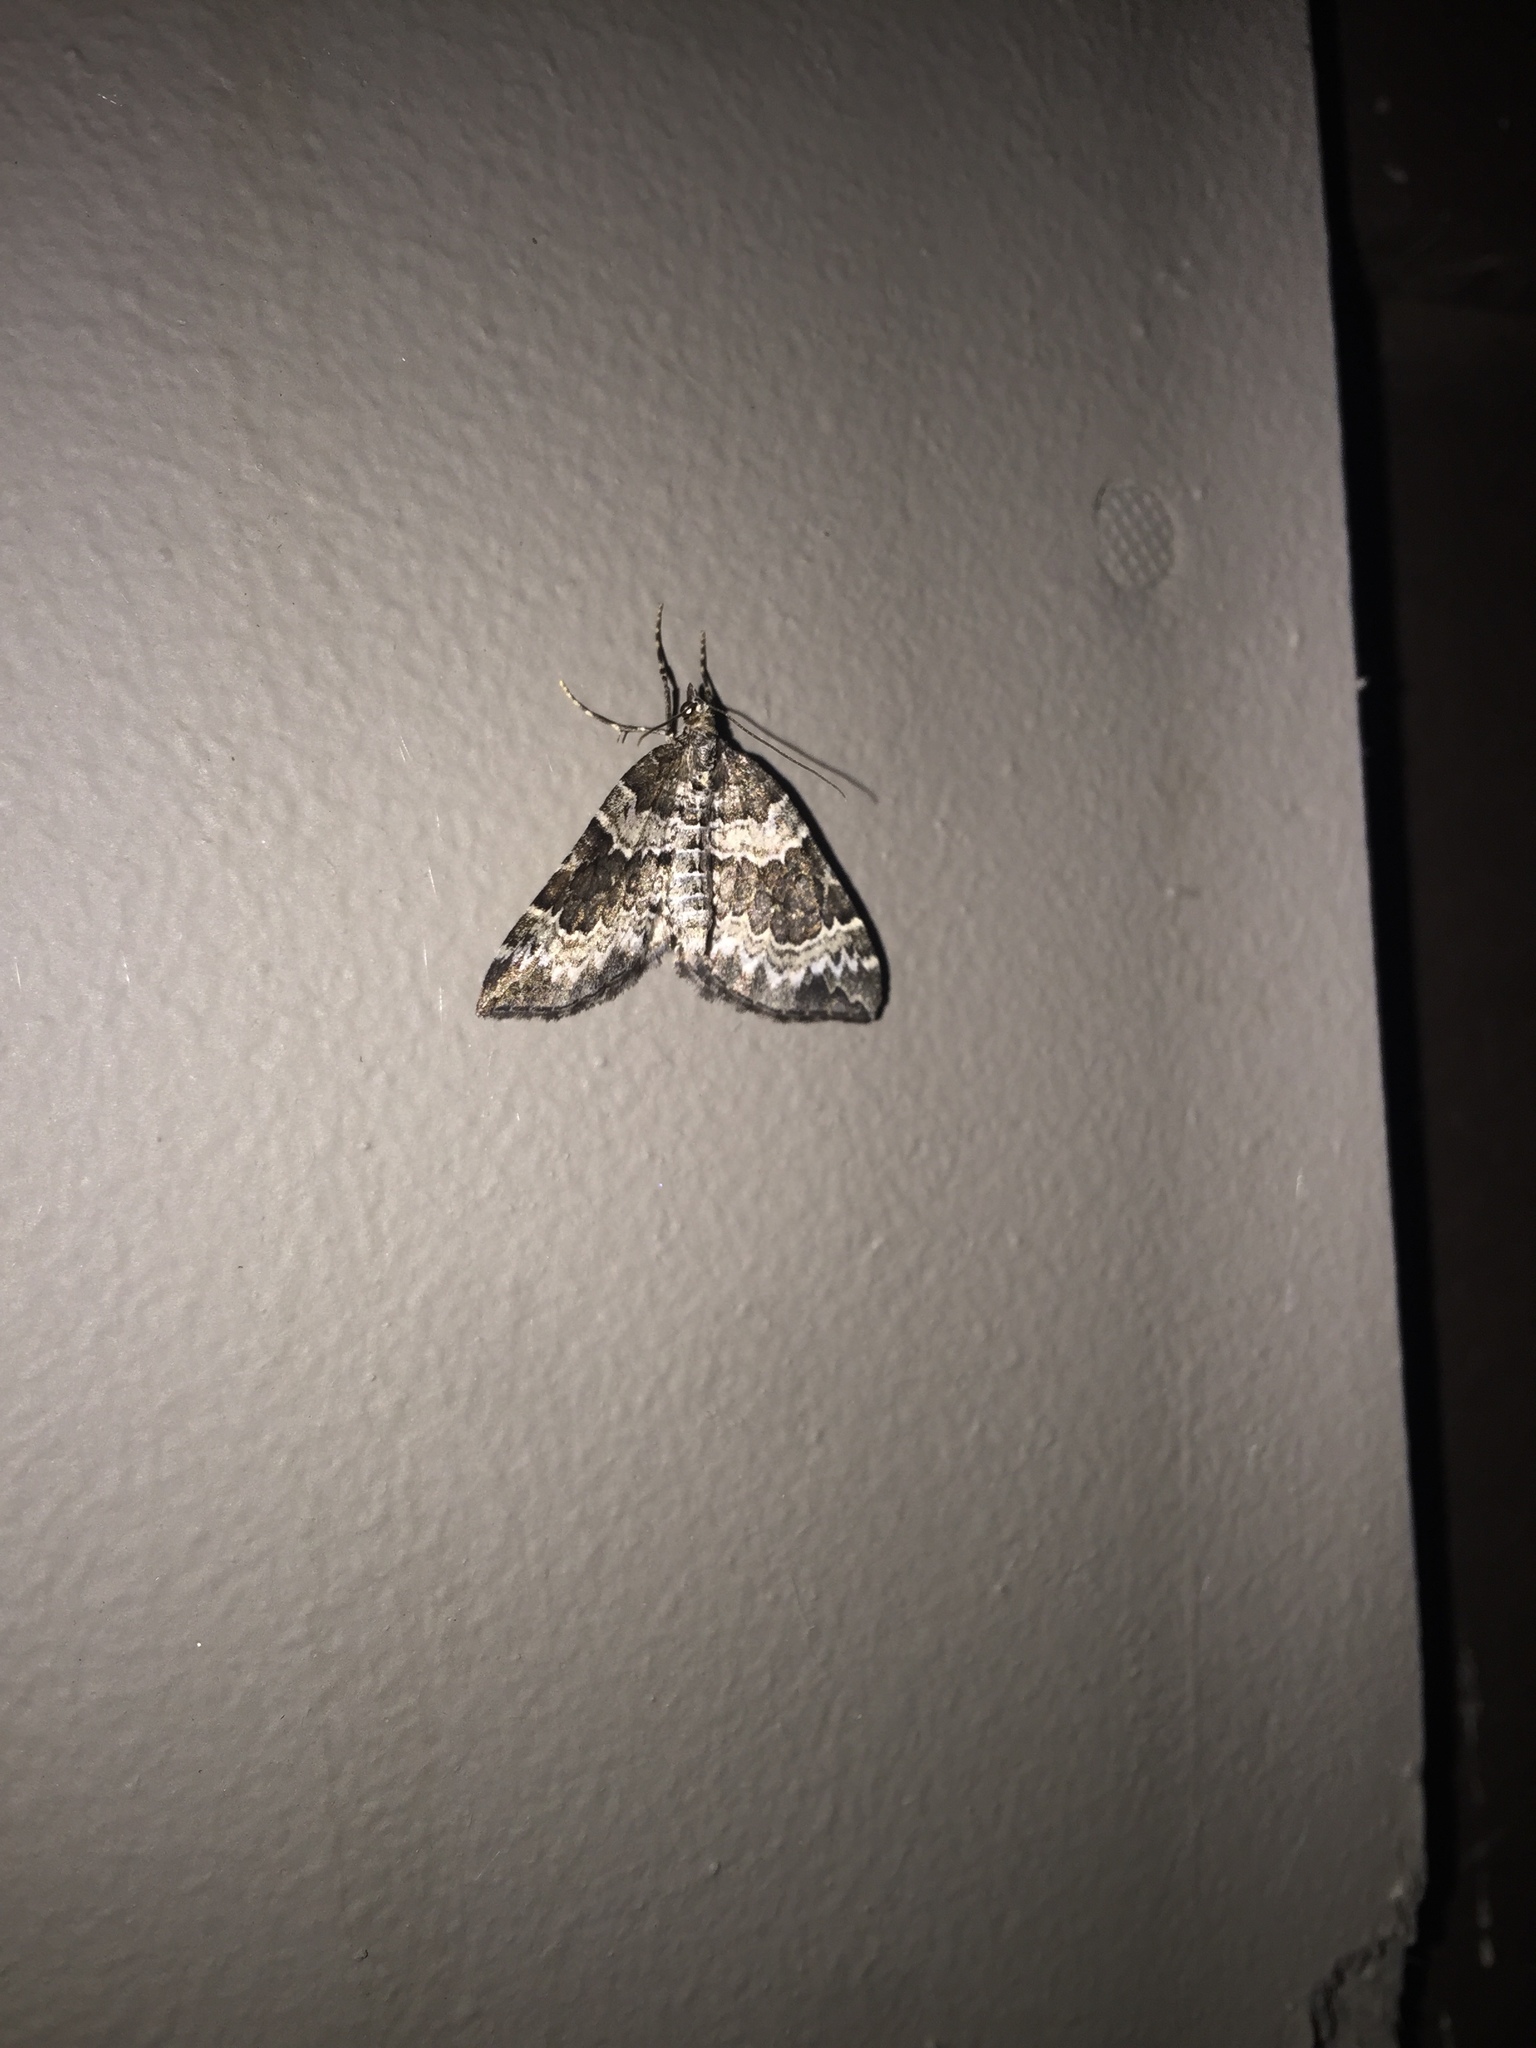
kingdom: Animalia
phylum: Arthropoda
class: Insecta
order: Lepidoptera
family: Geometridae
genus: Eulithis
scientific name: Eulithis explanata
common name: White eulithis
